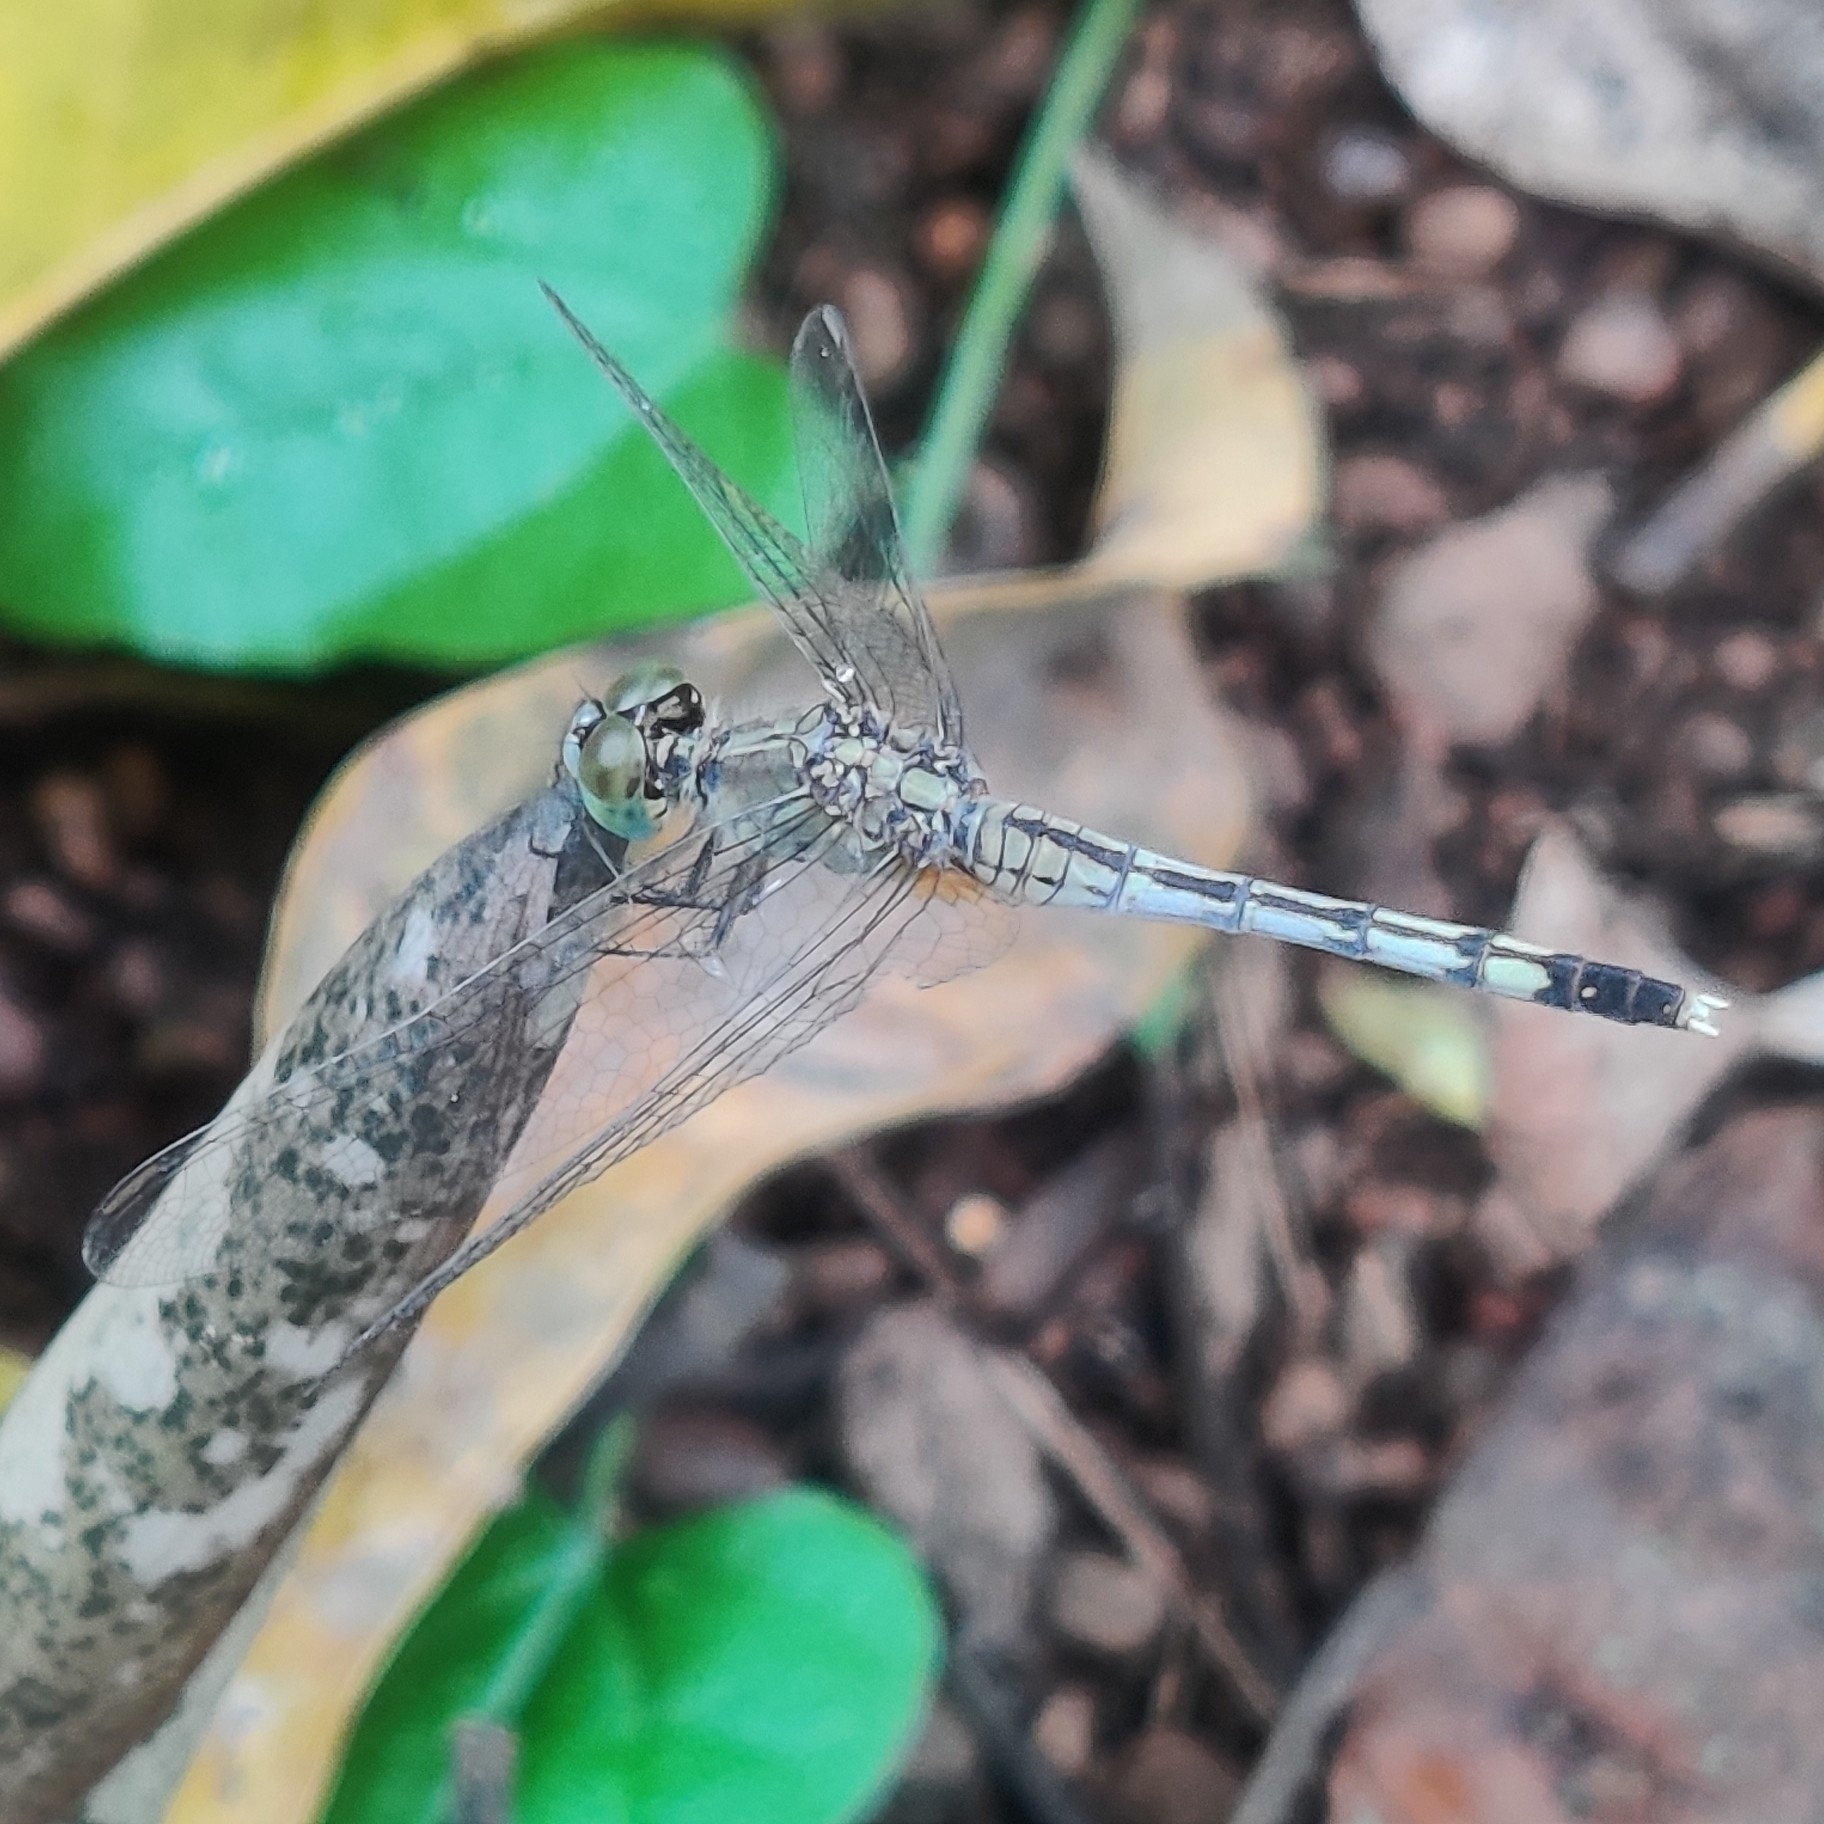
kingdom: Animalia
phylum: Arthropoda
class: Insecta
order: Odonata
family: Libellulidae
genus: Diplacodes
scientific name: Diplacodes trivialis
